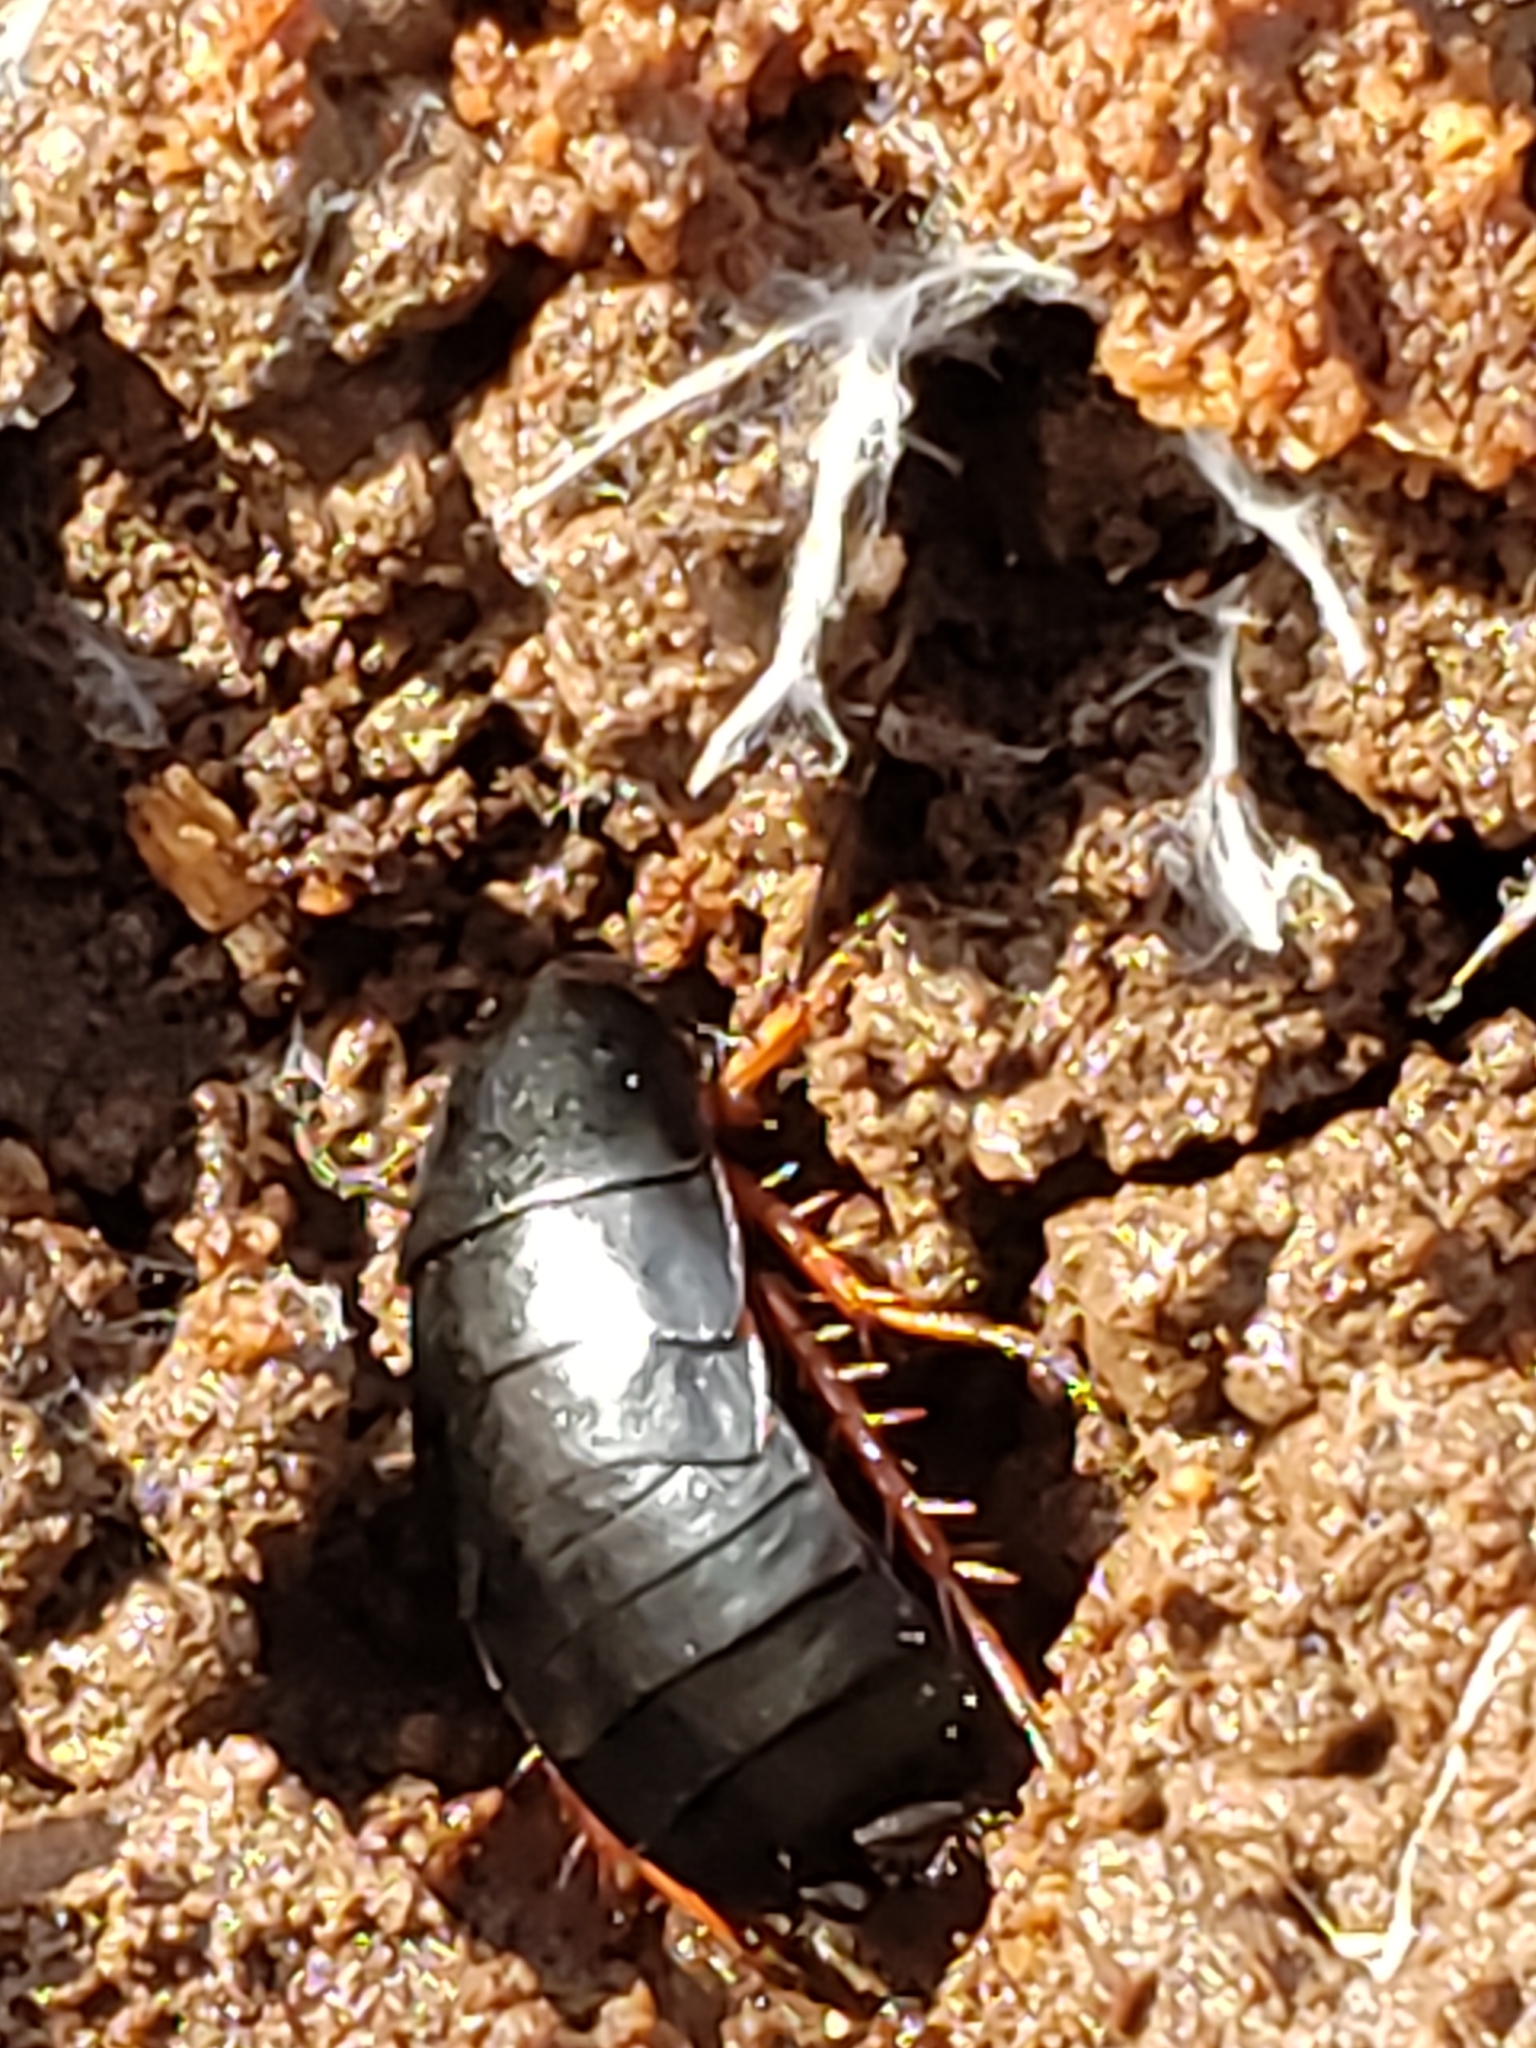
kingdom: Animalia
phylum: Arthropoda
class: Insecta
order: Blattodea
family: Ectobiidae
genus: Ischnoptera
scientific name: Ischnoptera deropeltiformis
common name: Dark wood cockroach
